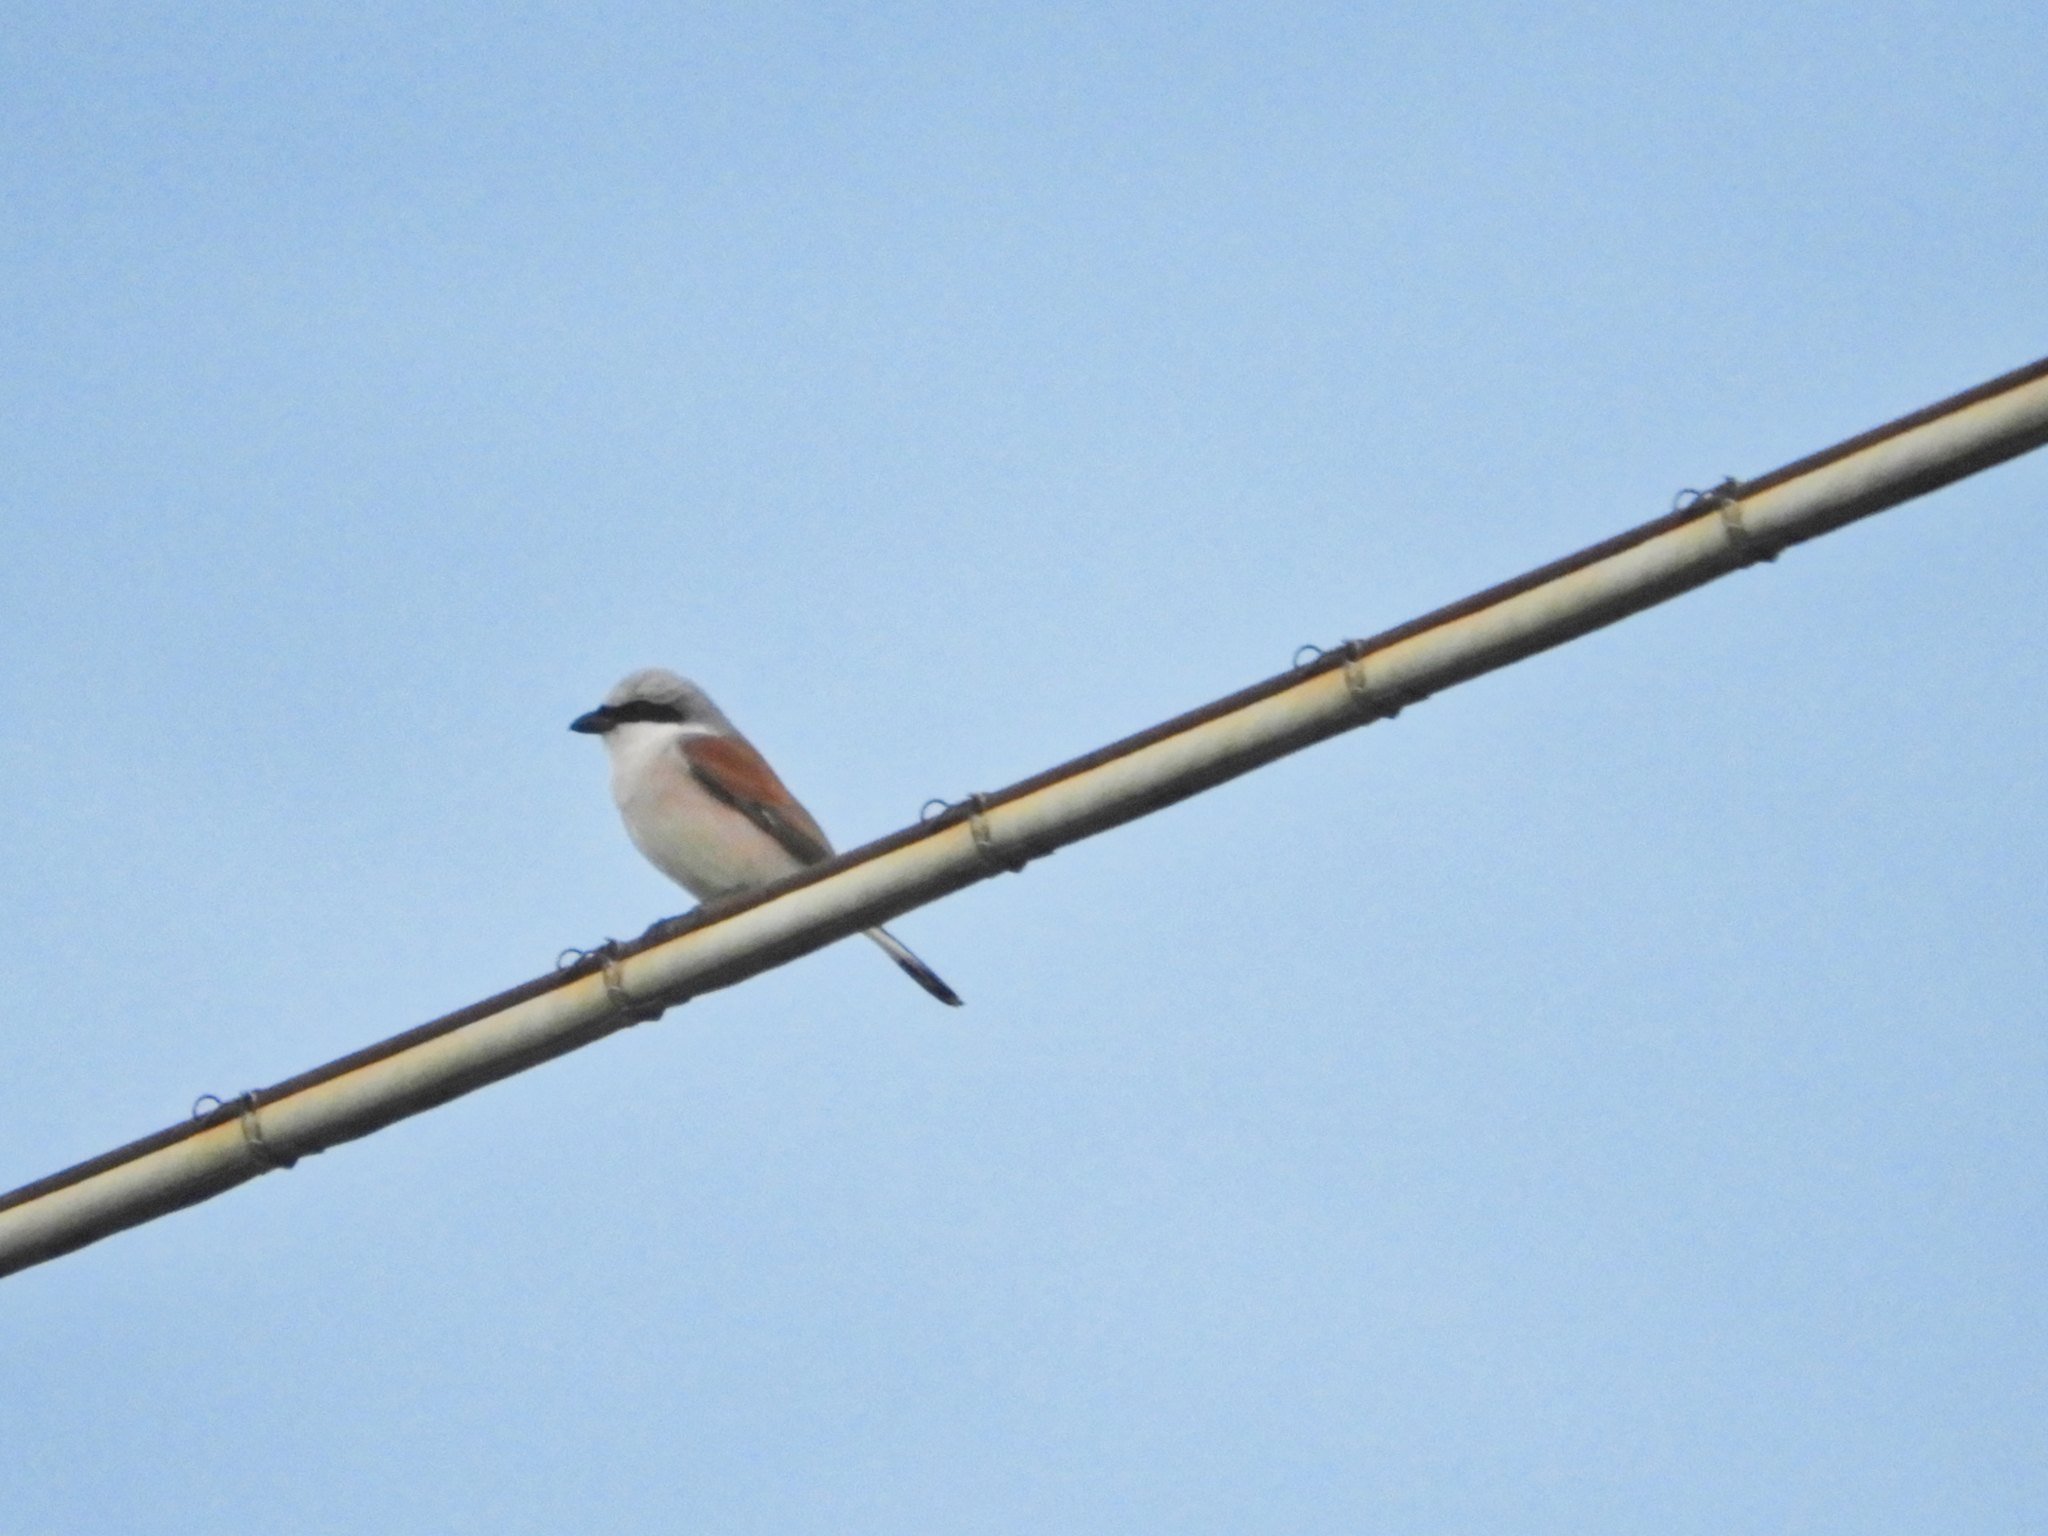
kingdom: Animalia
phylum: Chordata
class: Aves
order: Passeriformes
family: Laniidae
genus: Lanius
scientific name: Lanius collurio
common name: Red-backed shrike
